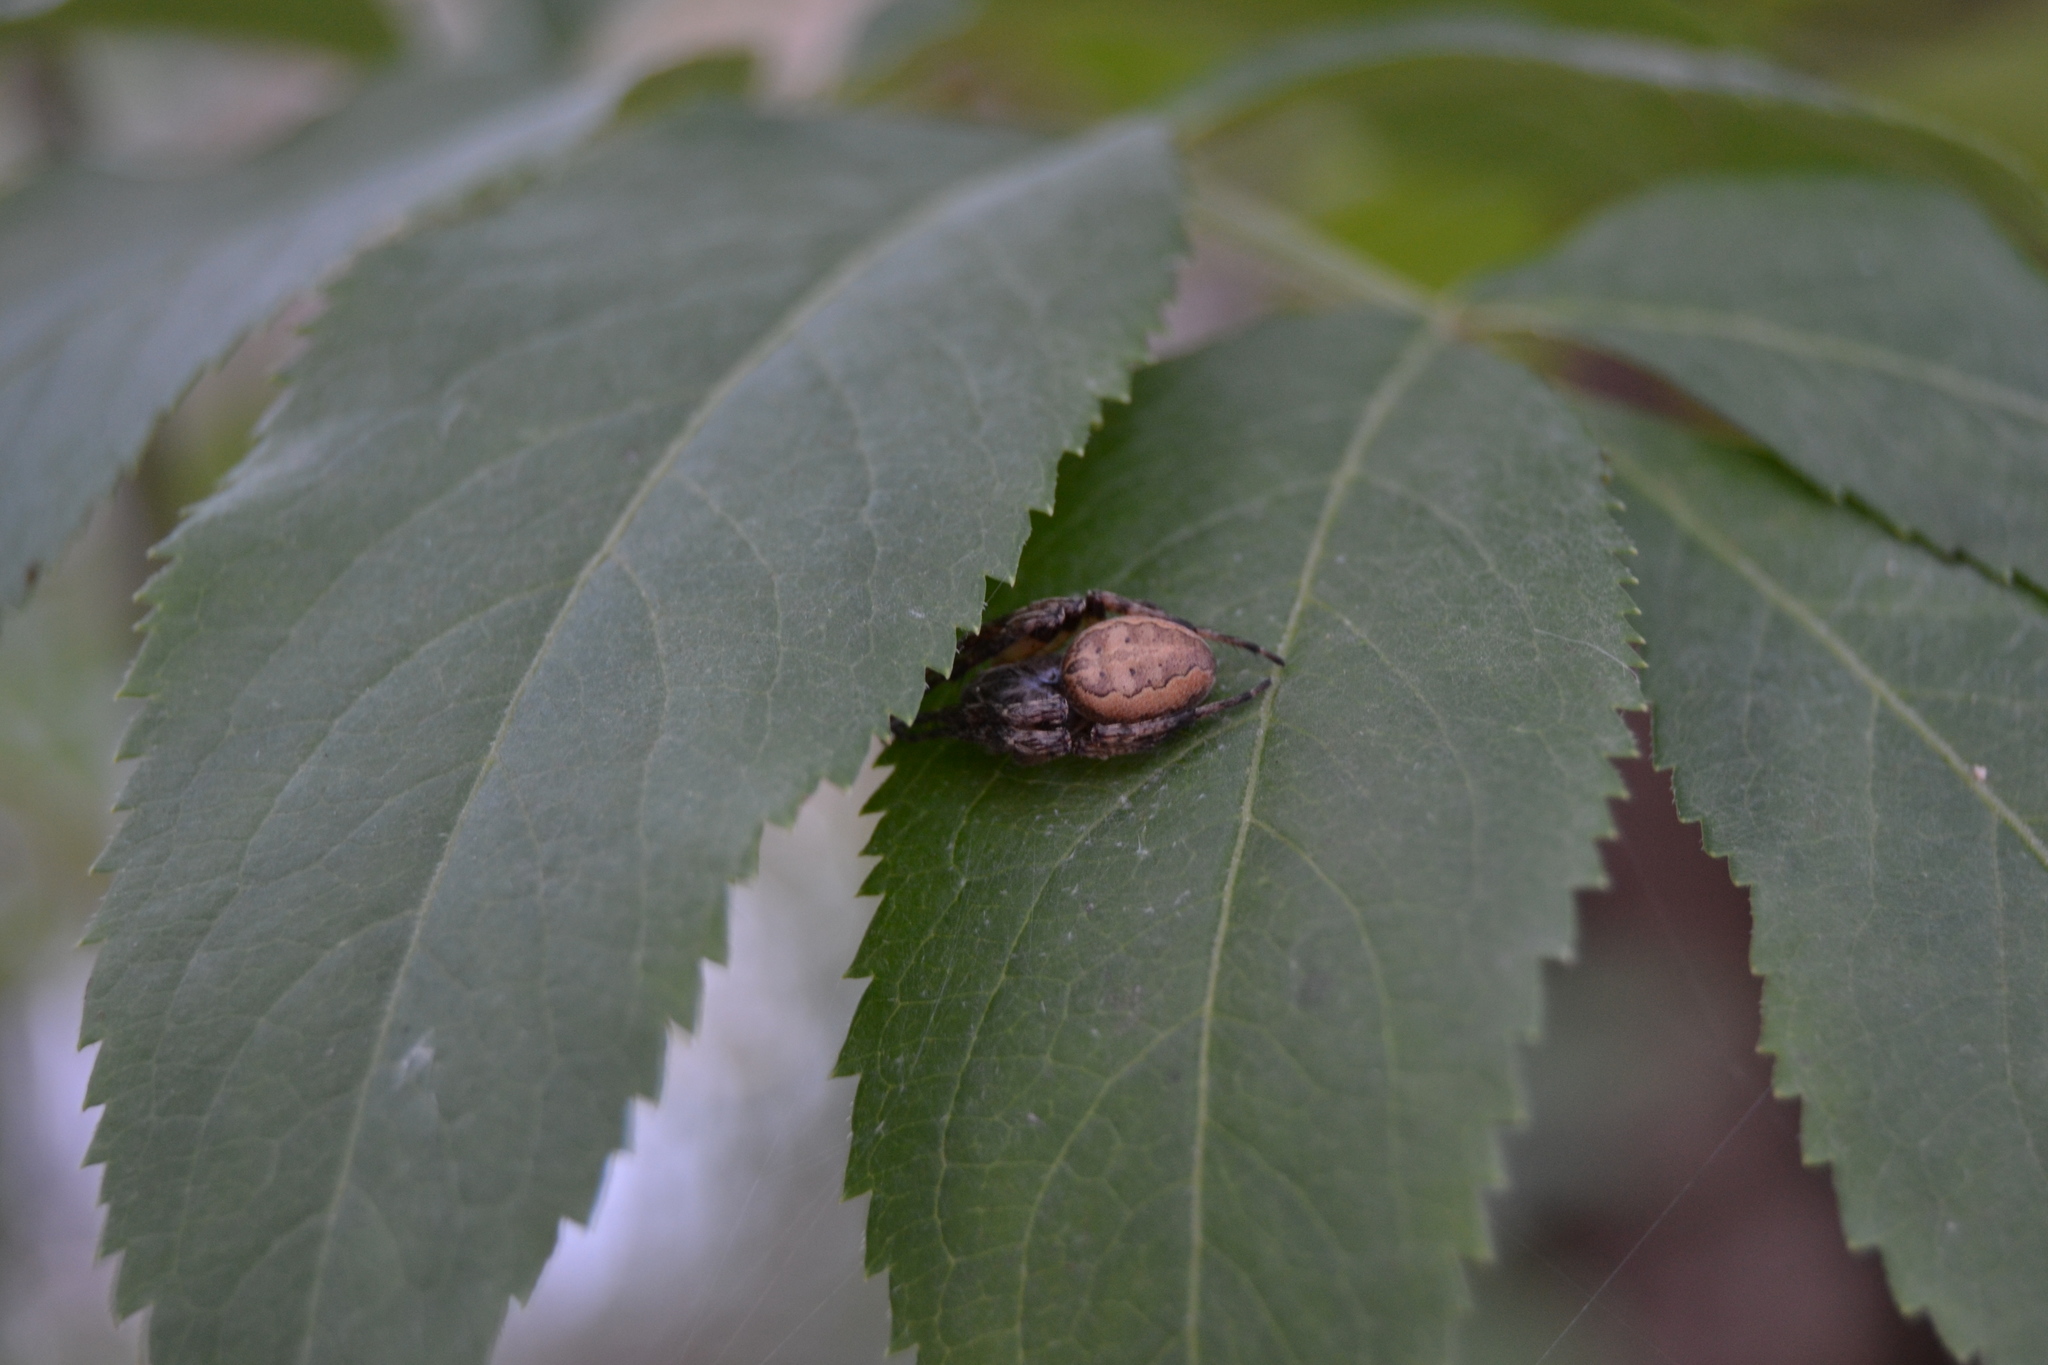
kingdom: Animalia
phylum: Arthropoda
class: Arachnida
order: Araneae
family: Araneidae
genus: Larinioides
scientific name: Larinioides cornutus
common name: Furrow orbweaver
